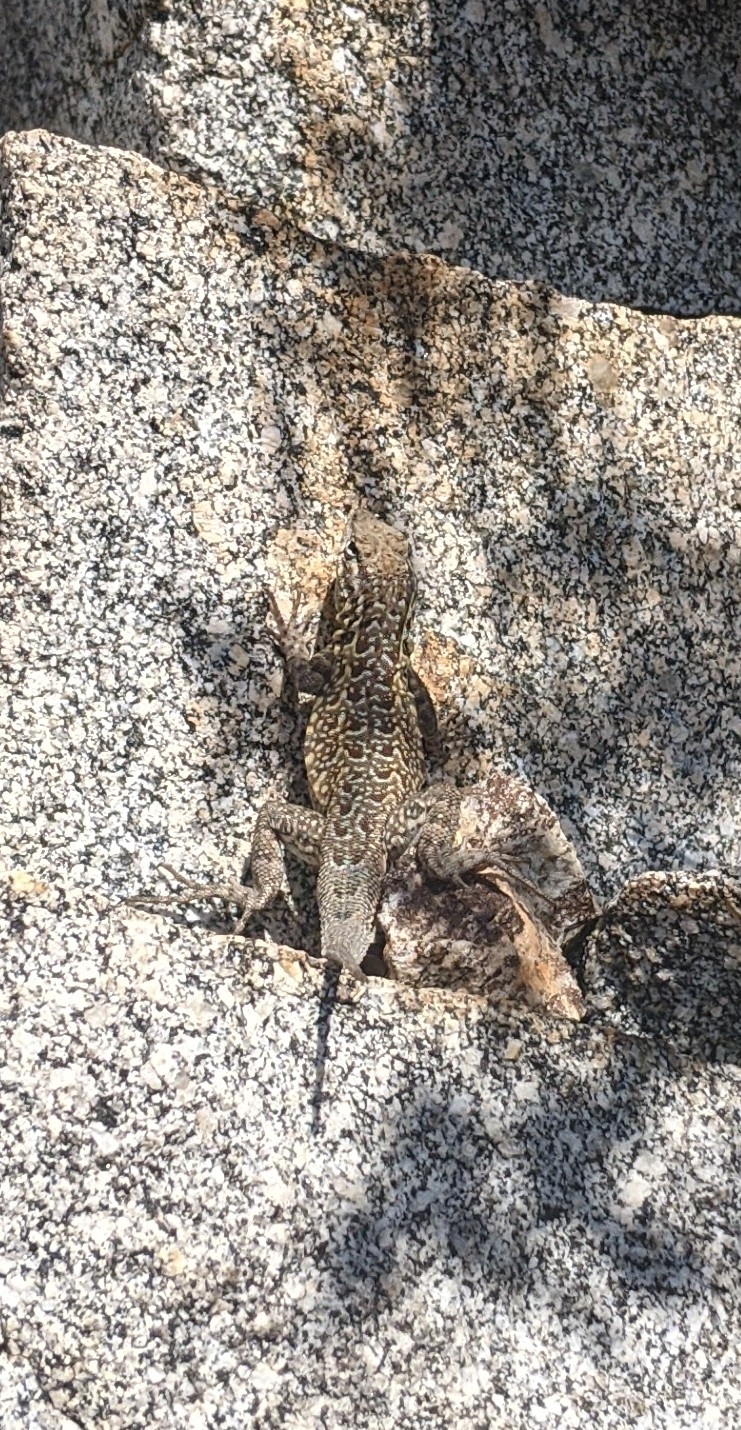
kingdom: Animalia
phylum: Chordata
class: Squamata
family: Phrynosomatidae
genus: Uta
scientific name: Uta stansburiana
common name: Side-blotched lizard
